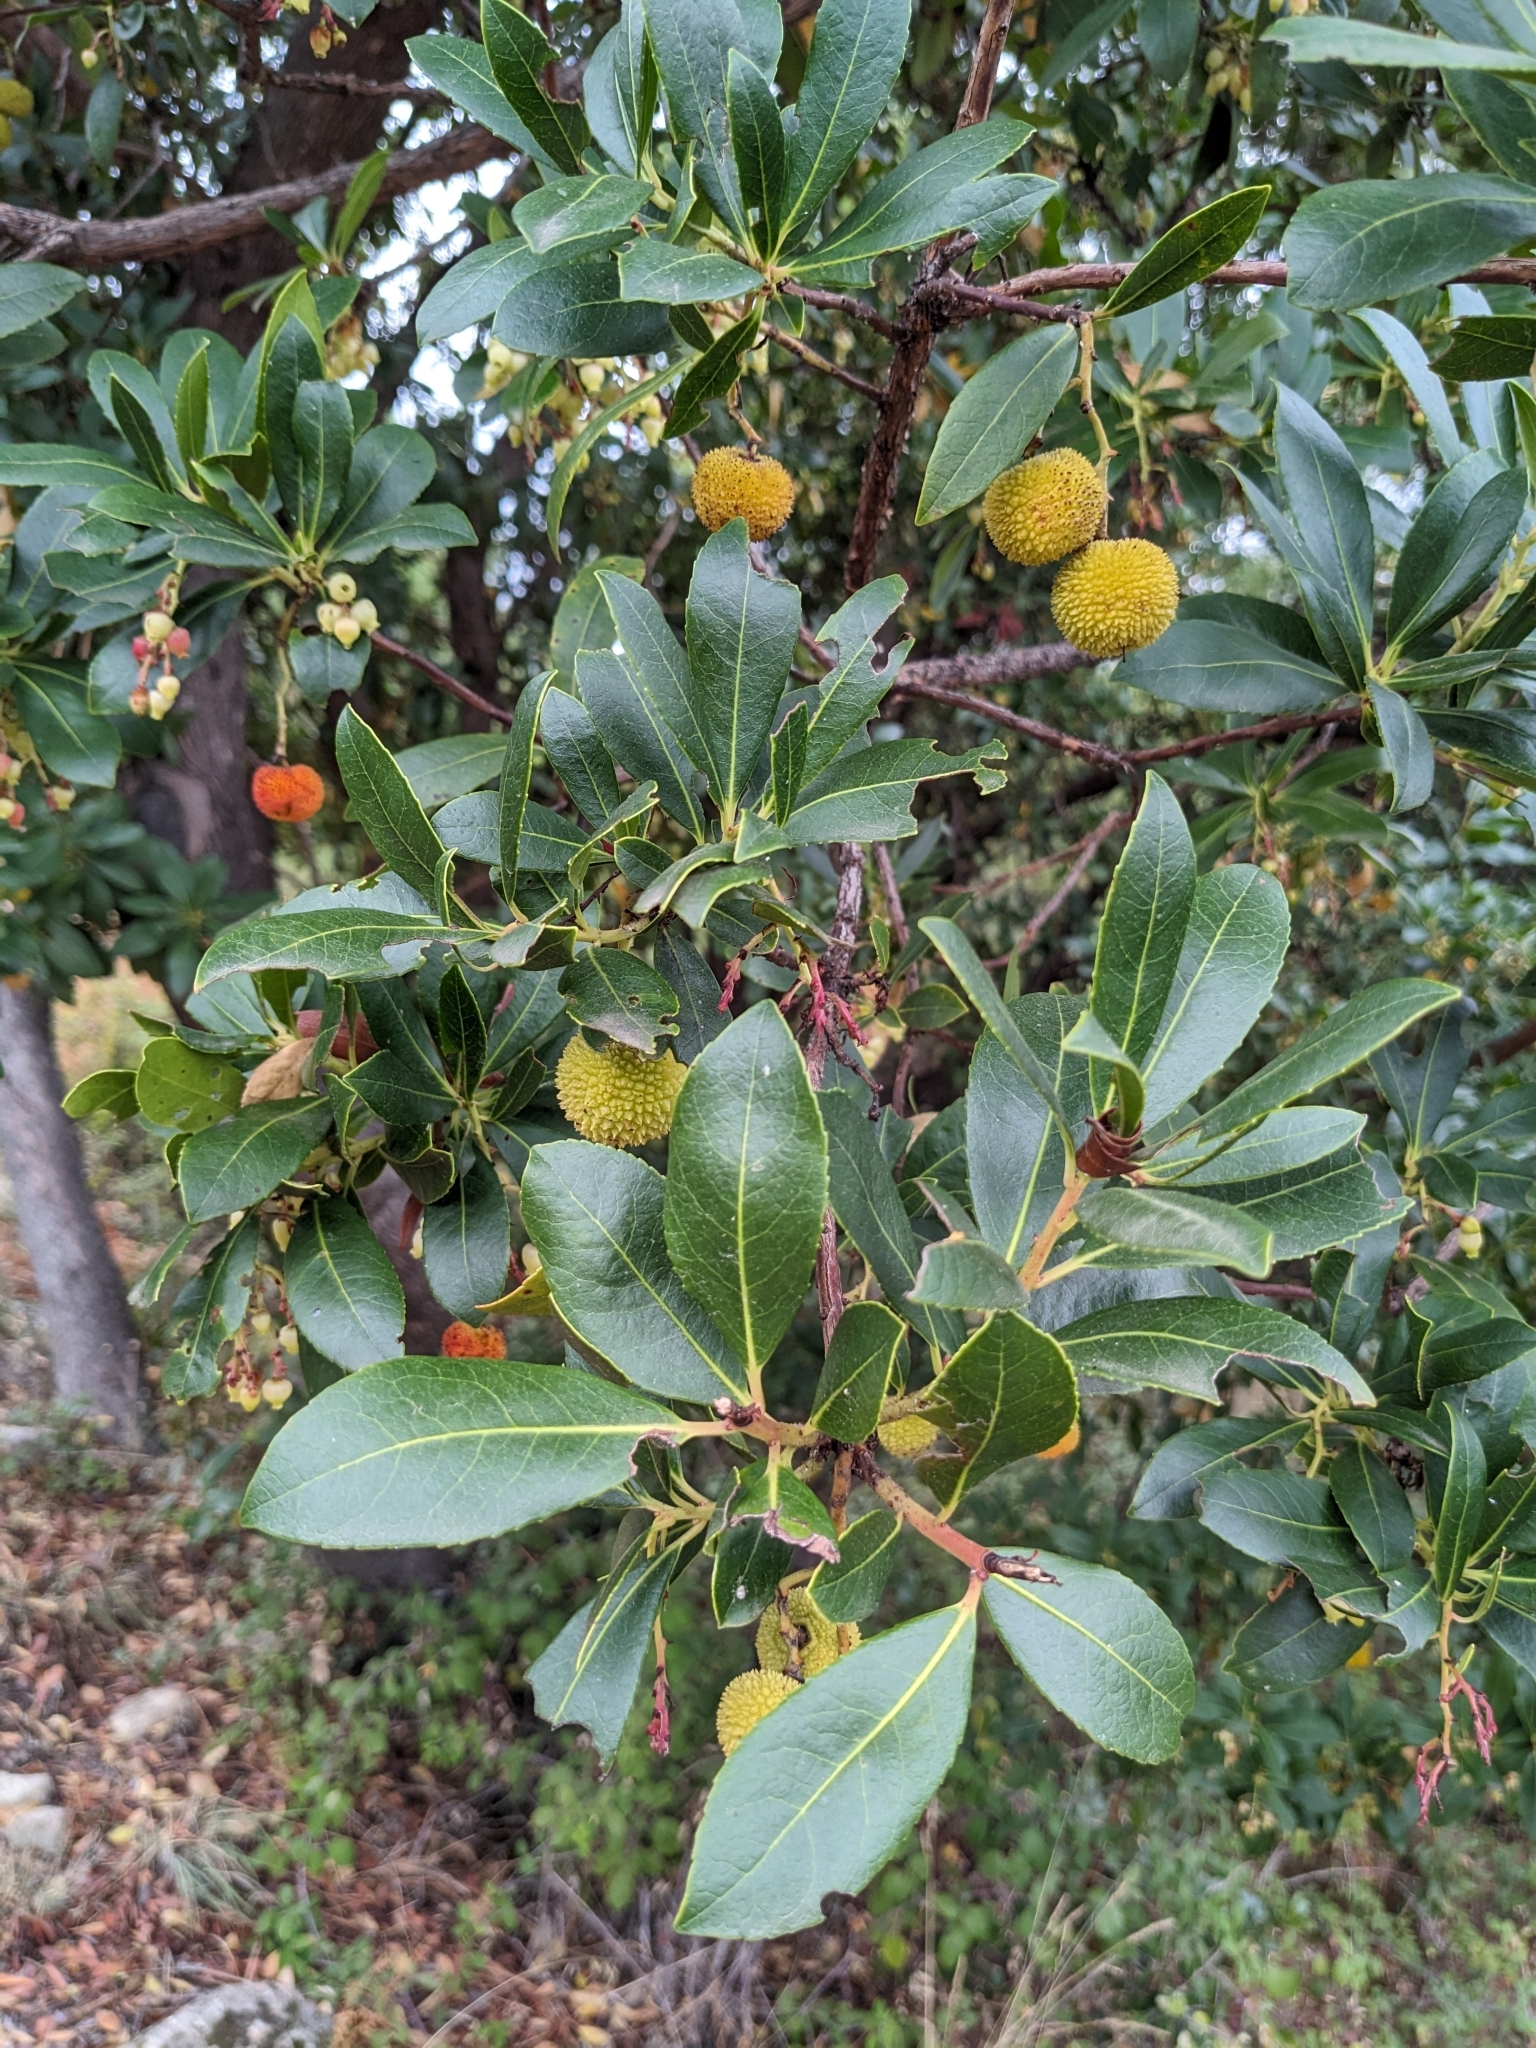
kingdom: Plantae
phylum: Tracheophyta
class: Magnoliopsida
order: Ericales
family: Ericaceae
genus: Arbutus
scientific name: Arbutus unedo
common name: Strawberry-tree
